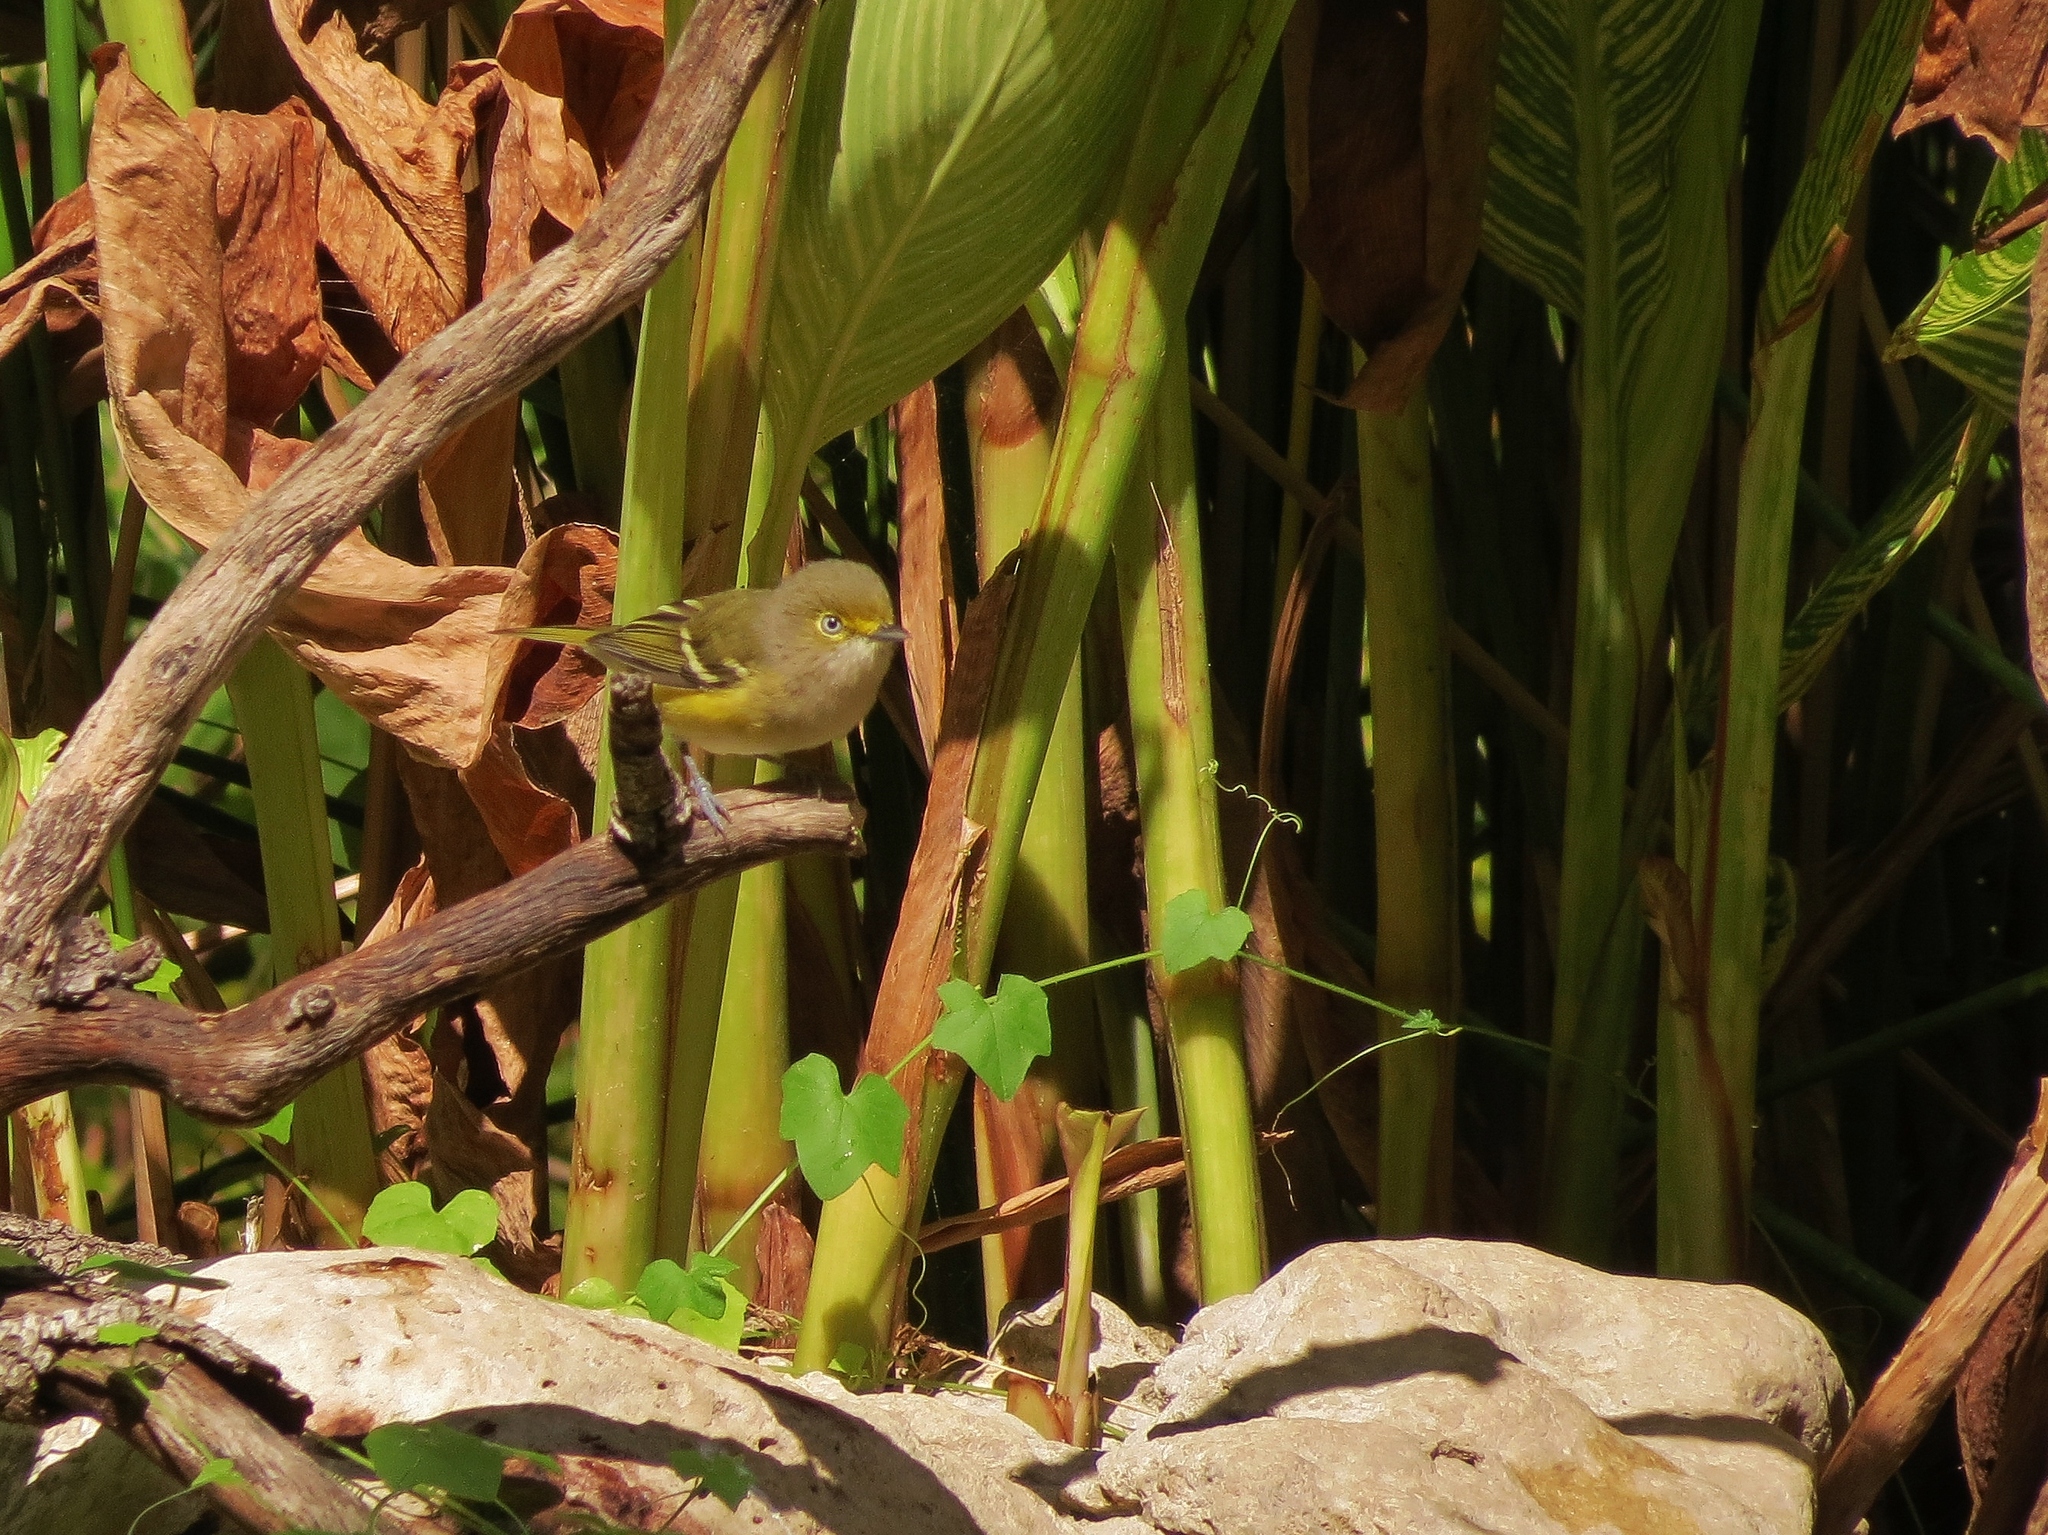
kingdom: Animalia
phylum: Chordata
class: Aves
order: Passeriformes
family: Vireonidae
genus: Vireo
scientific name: Vireo griseus
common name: White-eyed vireo
